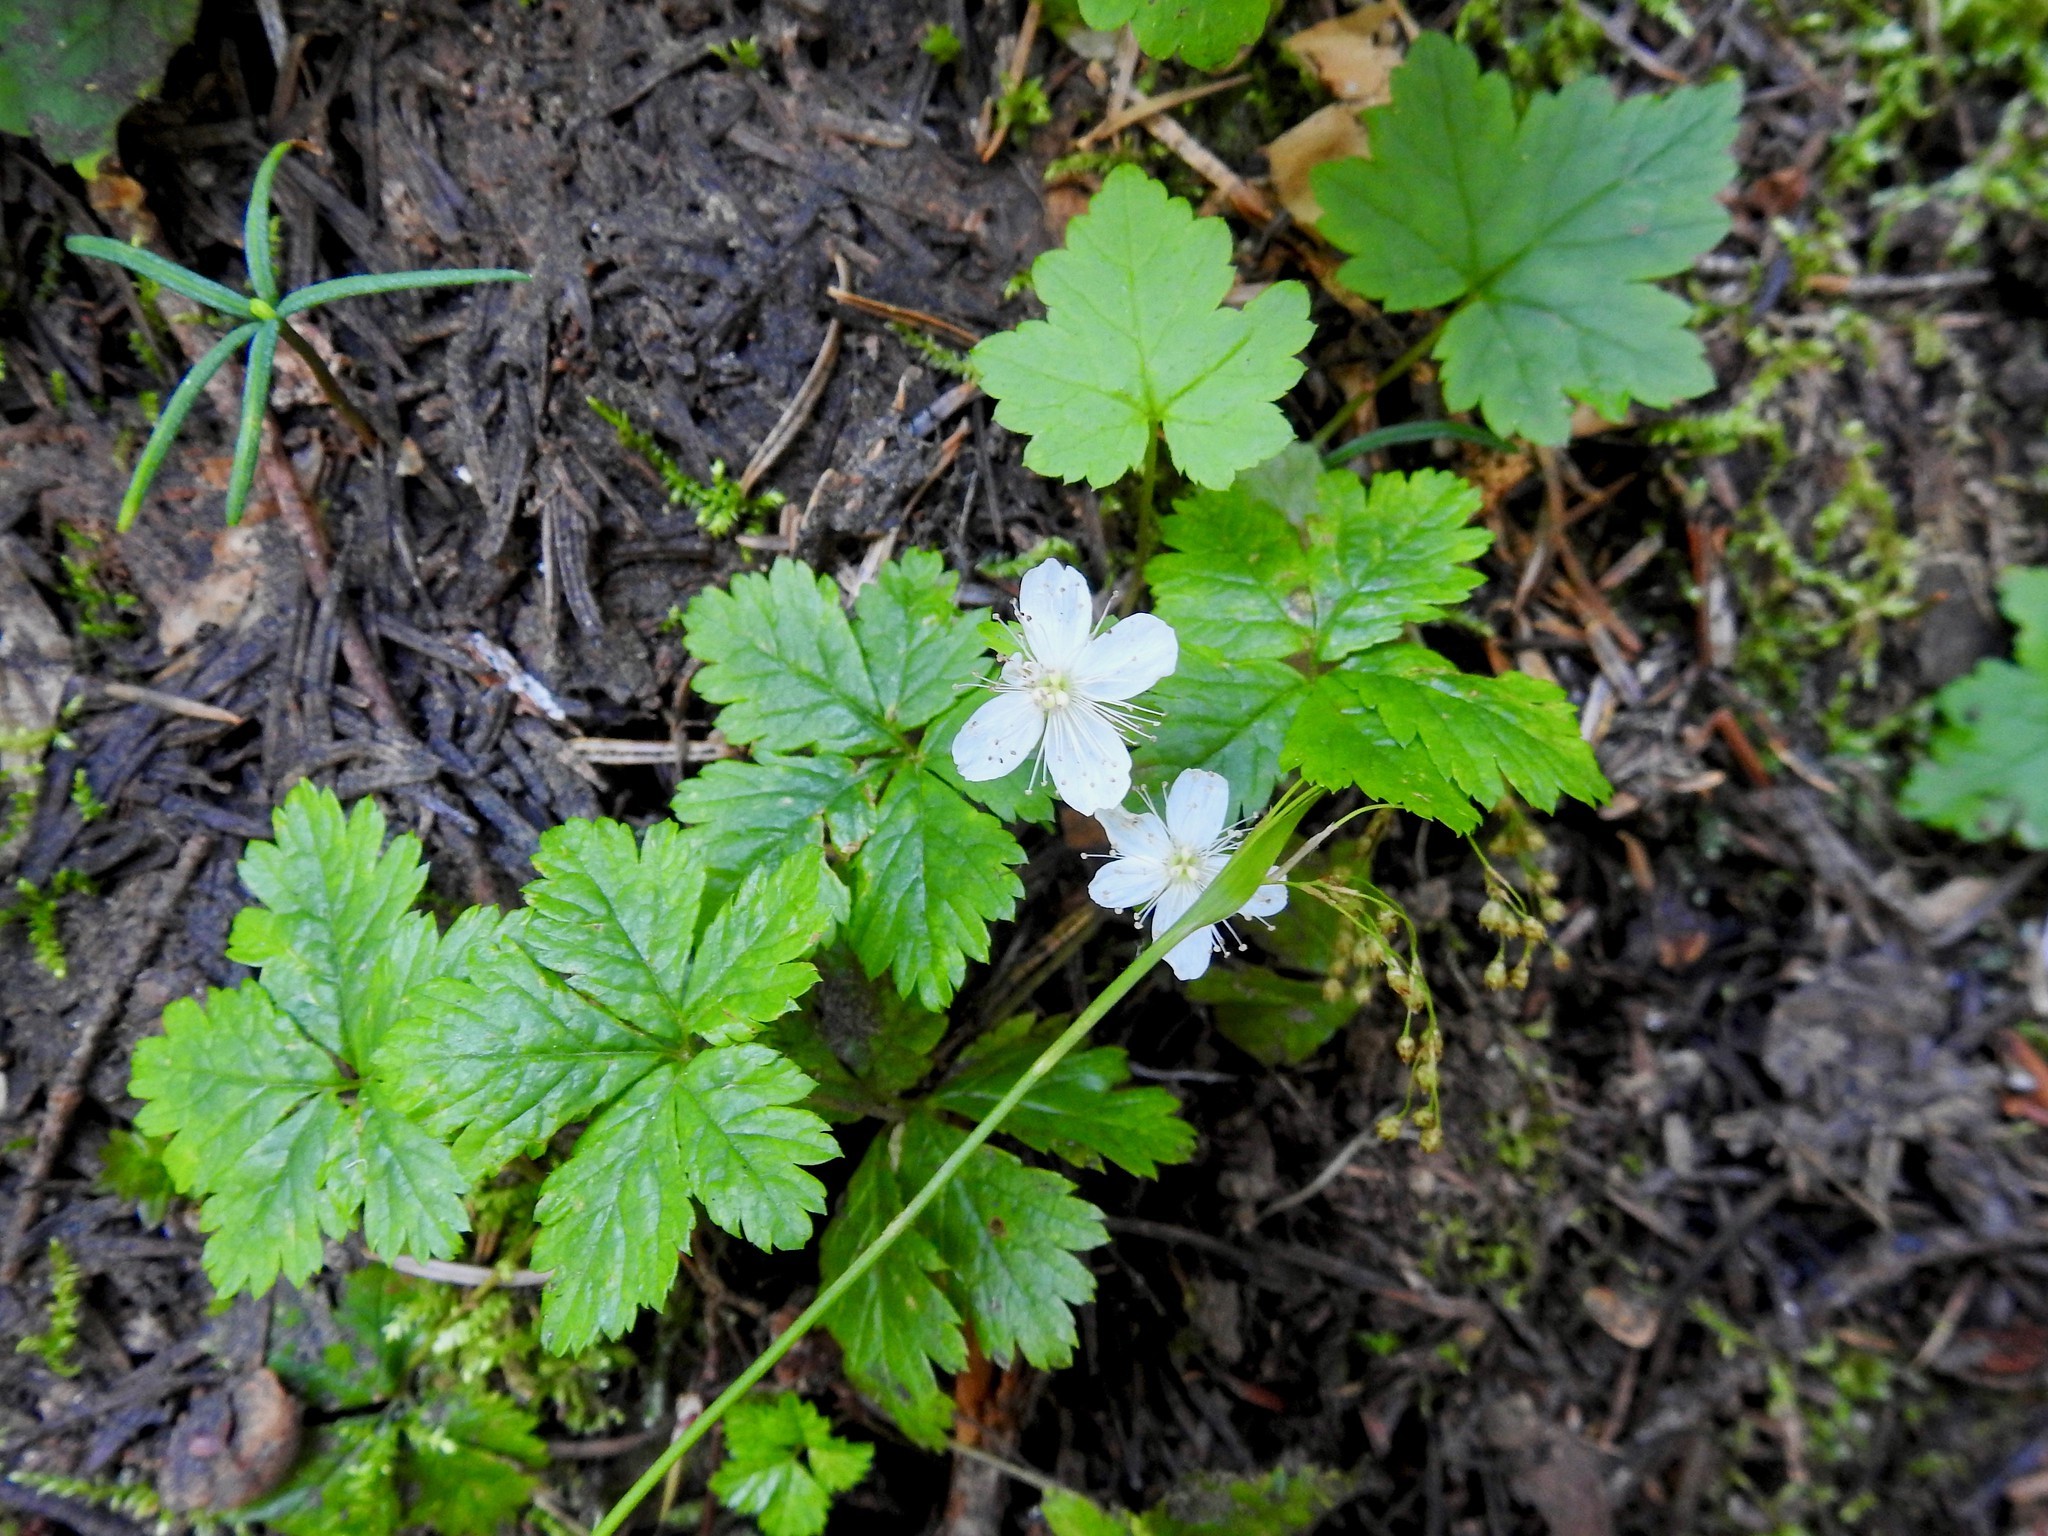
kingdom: Plantae
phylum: Tracheophyta
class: Magnoliopsida
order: Rosales
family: Rosaceae
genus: Rubus
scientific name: Rubus pedatus
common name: Creeping raspberry
